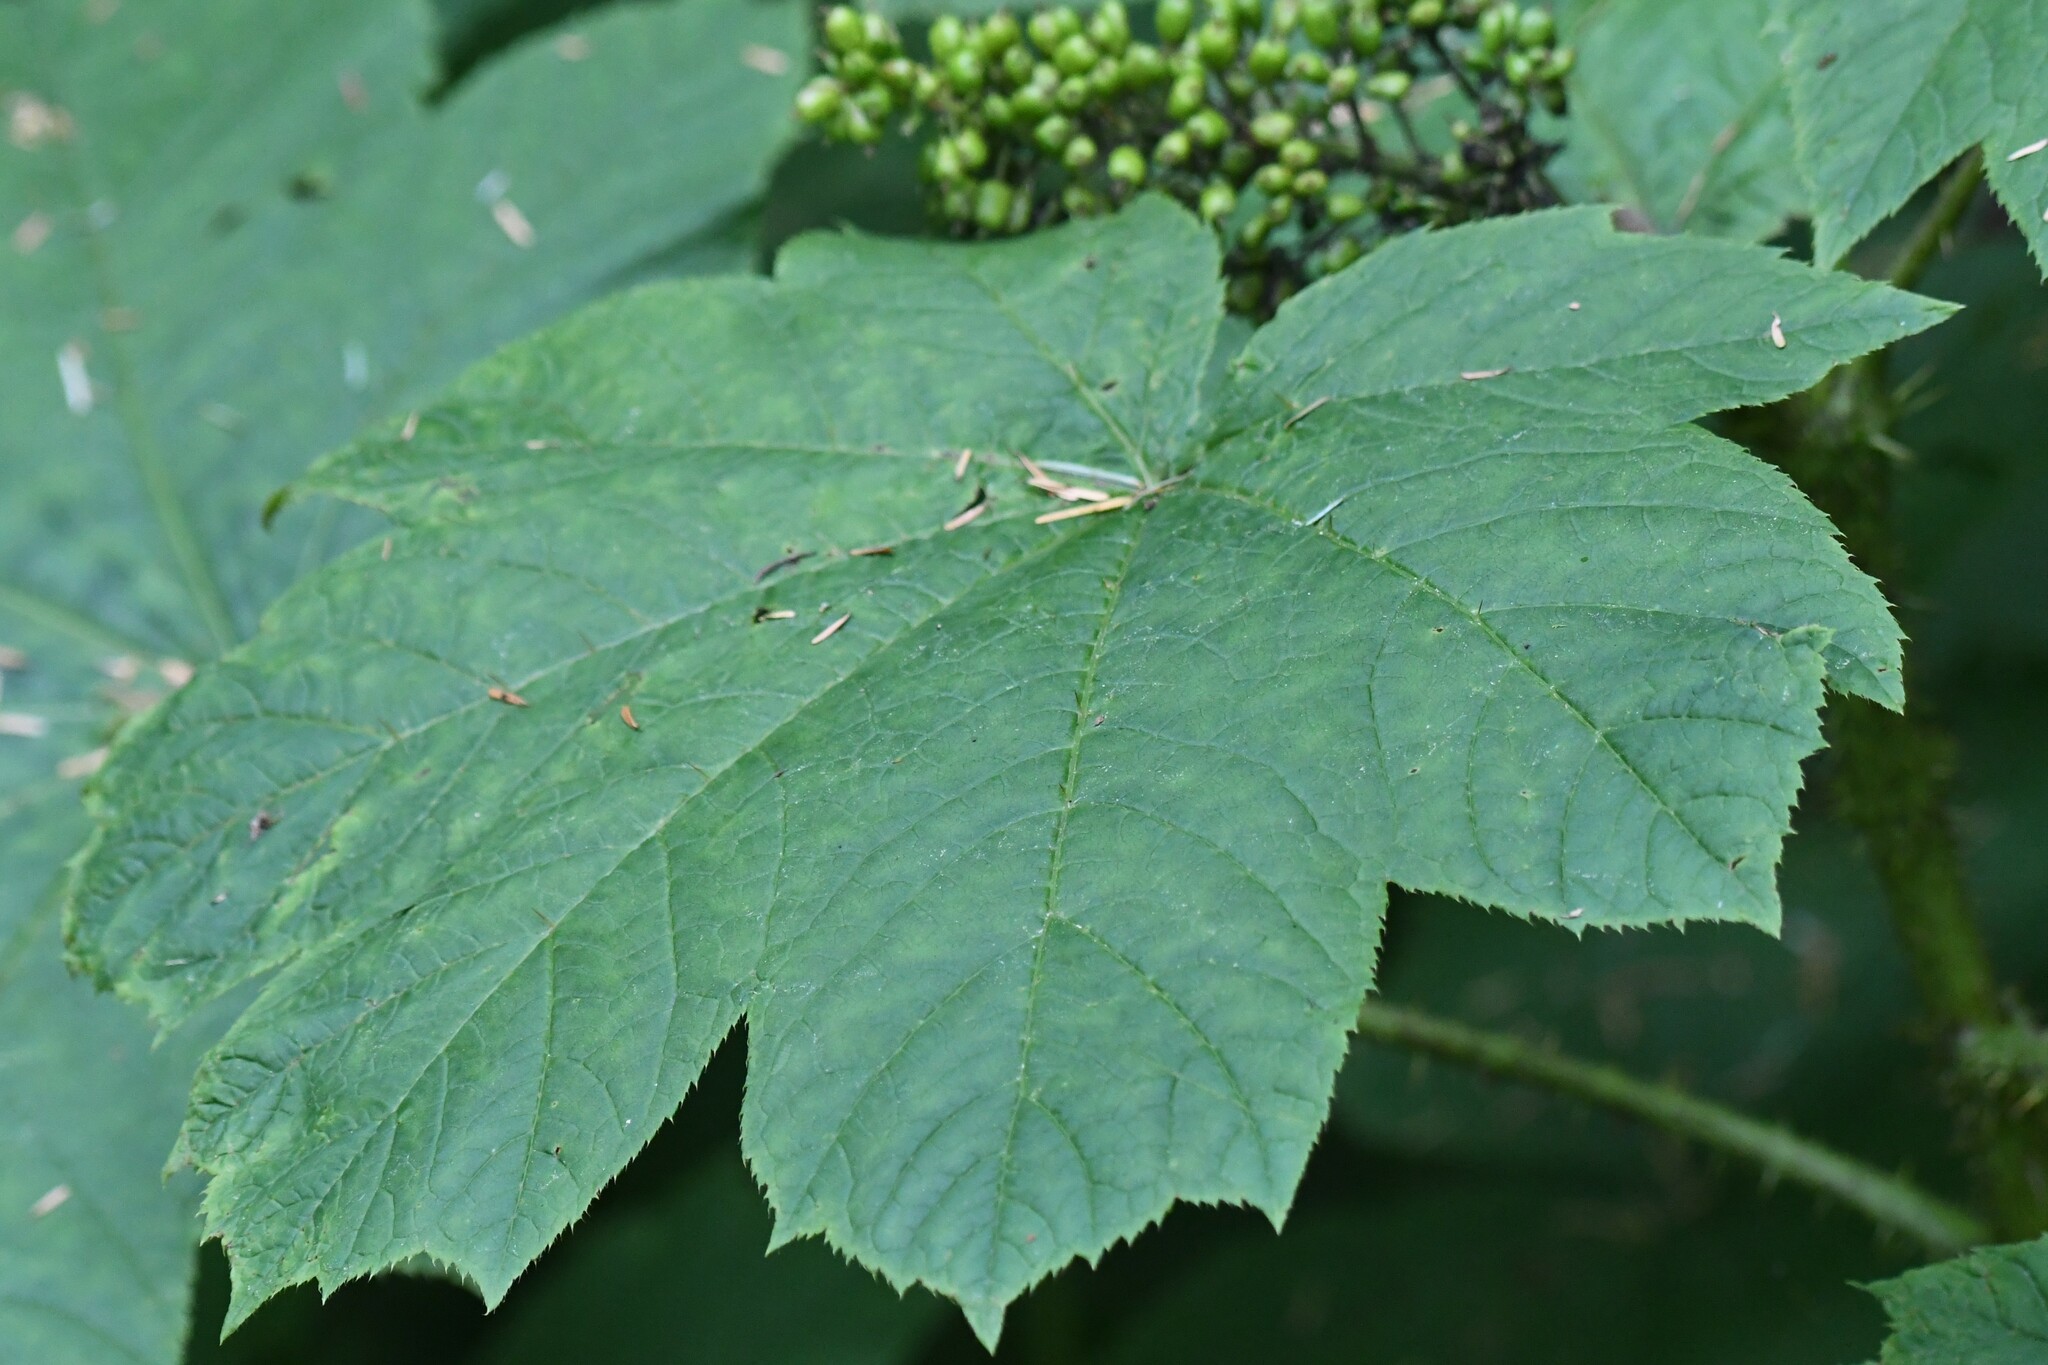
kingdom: Plantae
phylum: Tracheophyta
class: Magnoliopsida
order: Apiales
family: Araliaceae
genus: Oplopanax
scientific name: Oplopanax horridus
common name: Devil's walking-stick
